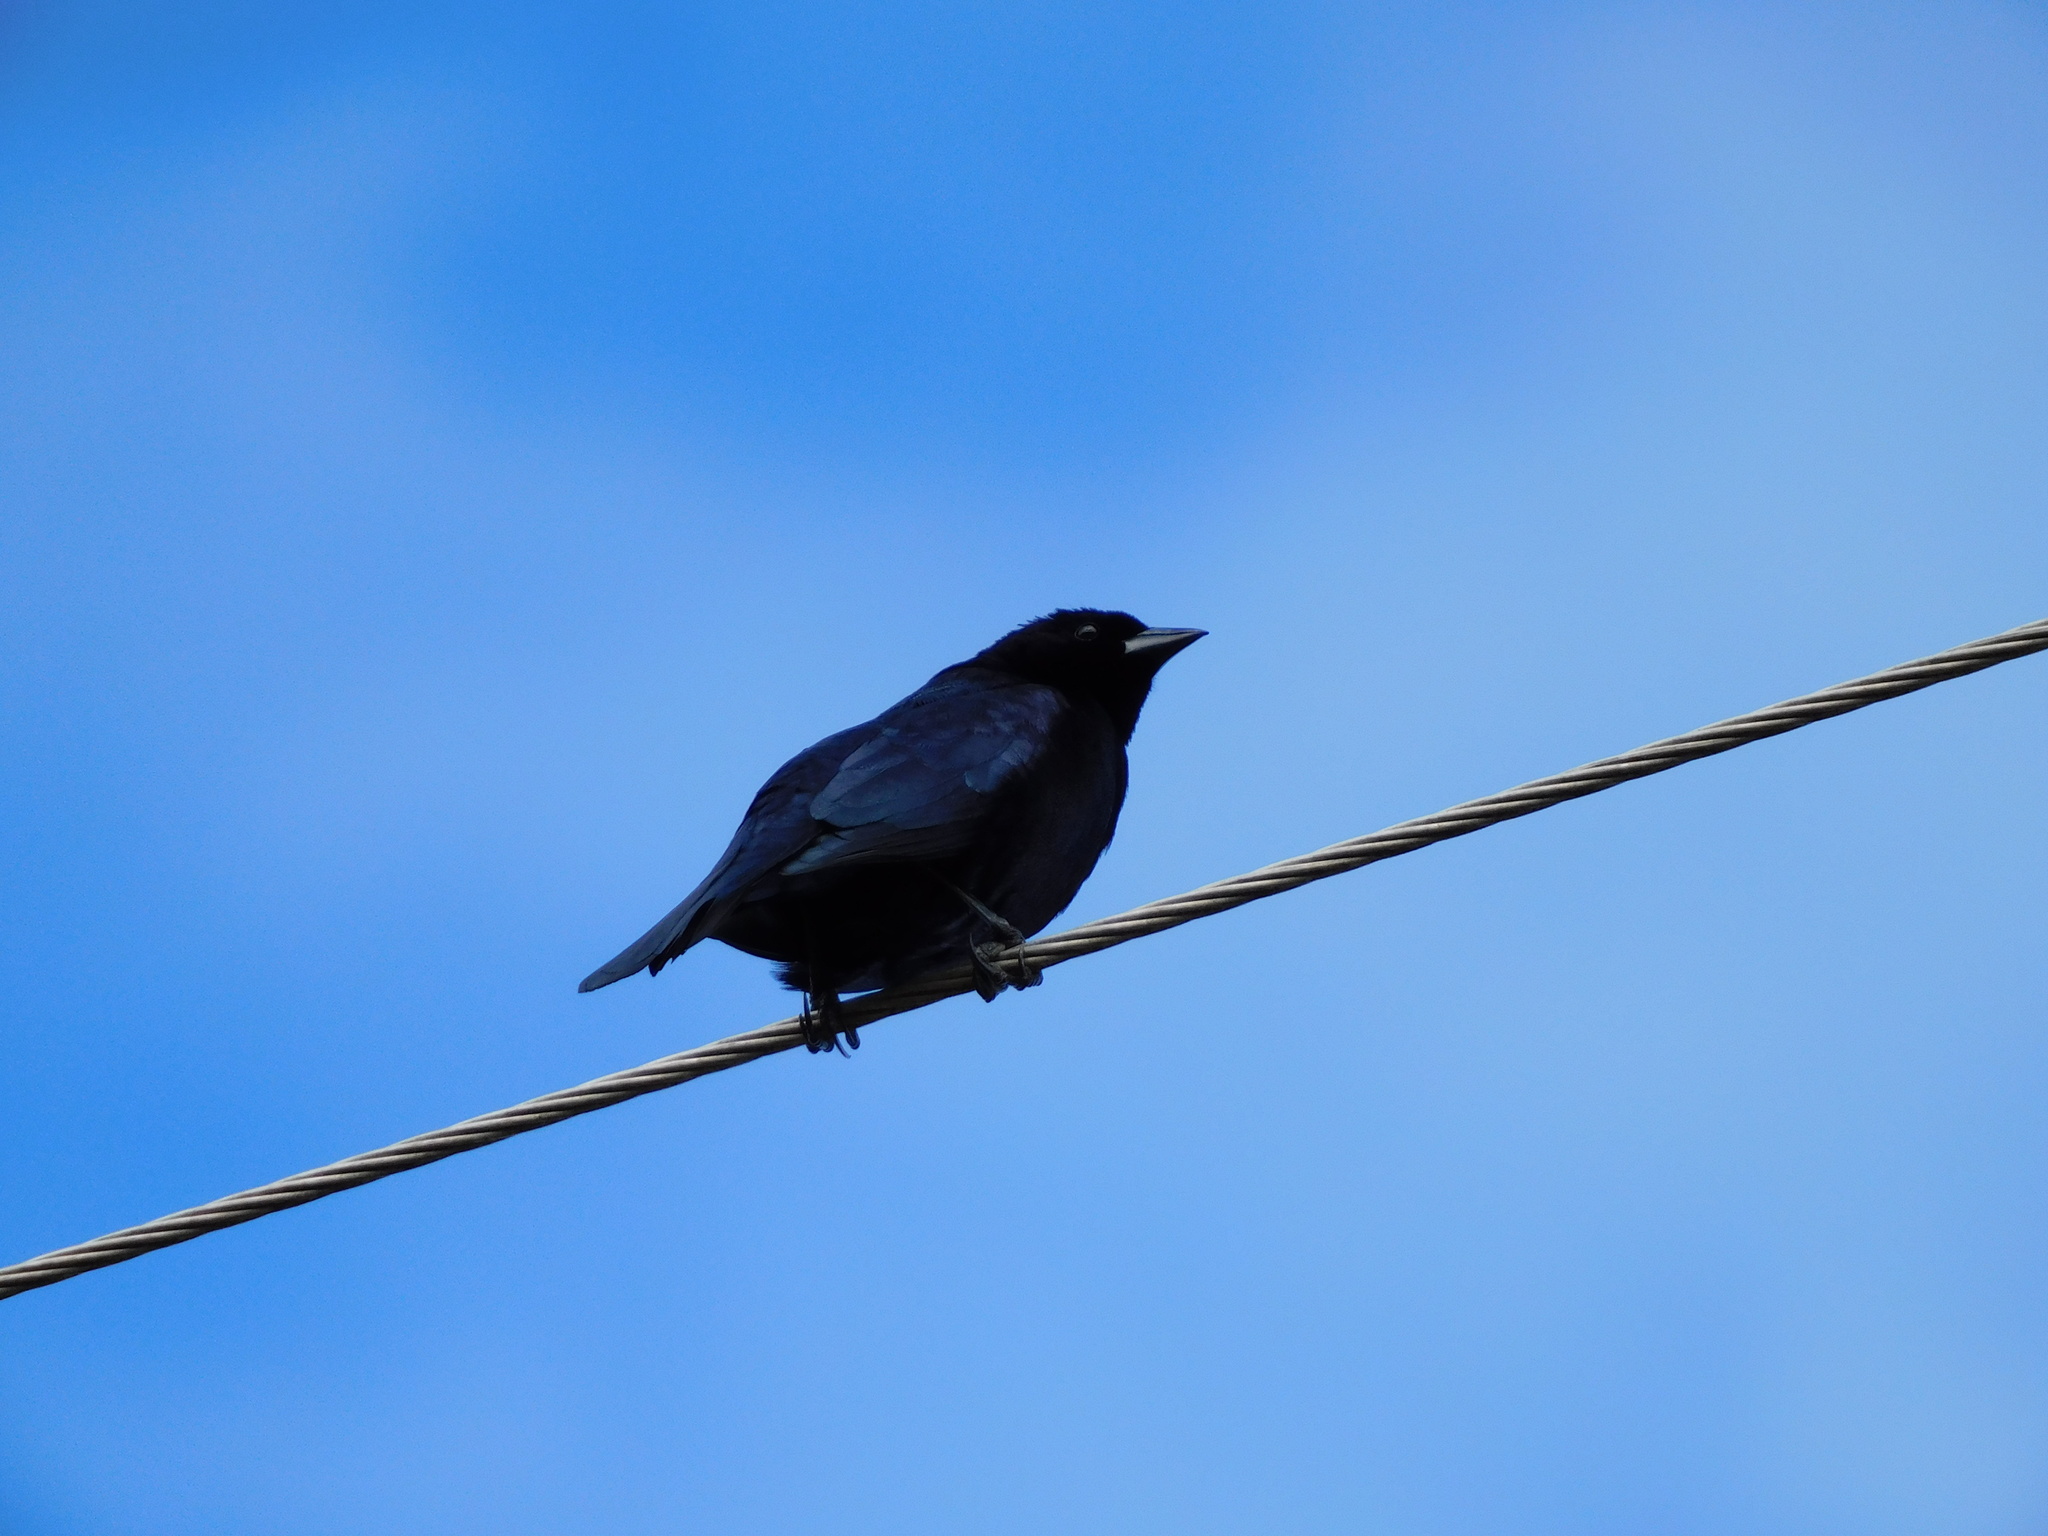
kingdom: Animalia
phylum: Chordata
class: Aves
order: Passeriformes
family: Icteridae
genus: Molothrus
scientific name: Molothrus bonariensis
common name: Shiny cowbird
